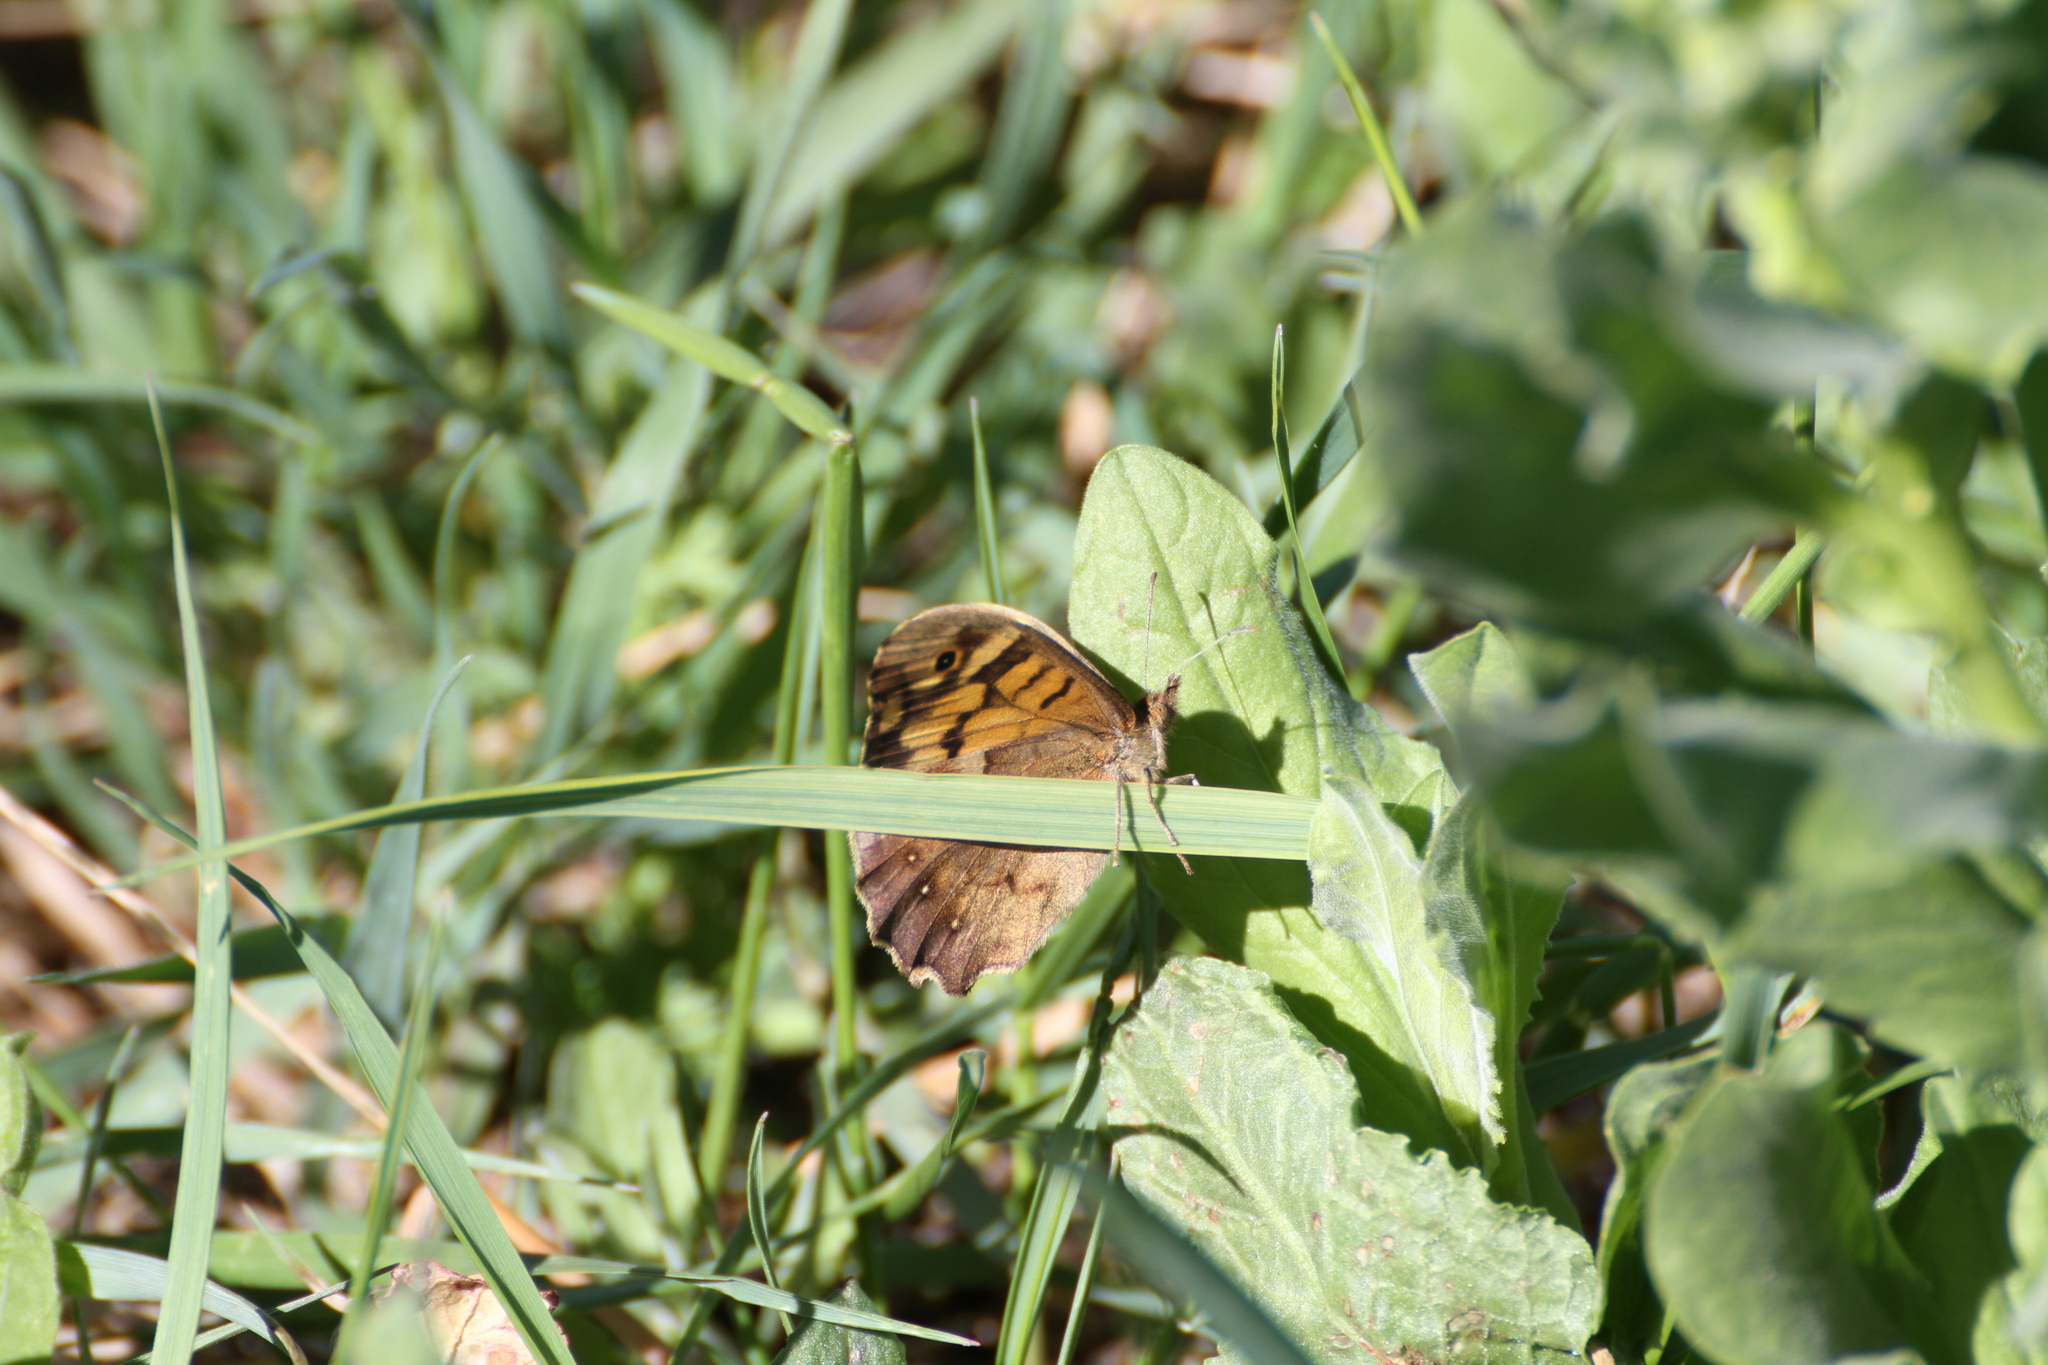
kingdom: Animalia
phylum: Arthropoda
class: Insecta
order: Lepidoptera
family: Nymphalidae
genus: Pararge
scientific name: Pararge aegeria
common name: Speckled wood
